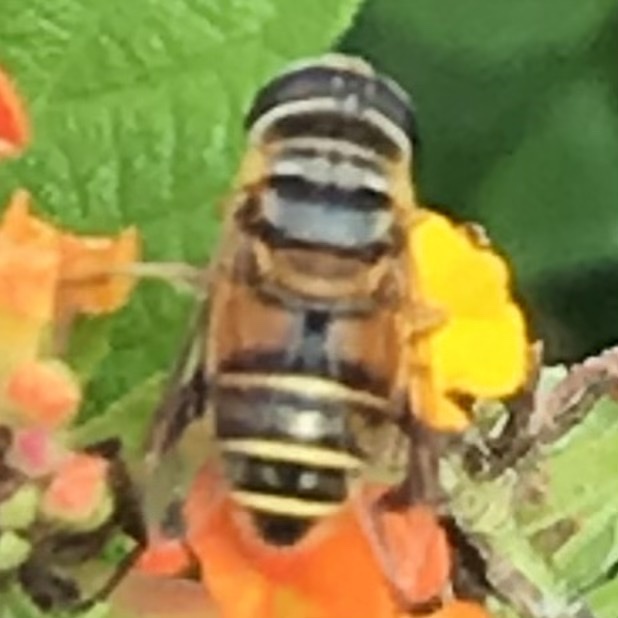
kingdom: Animalia
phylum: Arthropoda
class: Insecta
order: Diptera
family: Syrphidae
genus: Palpada
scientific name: Palpada vinetorum
